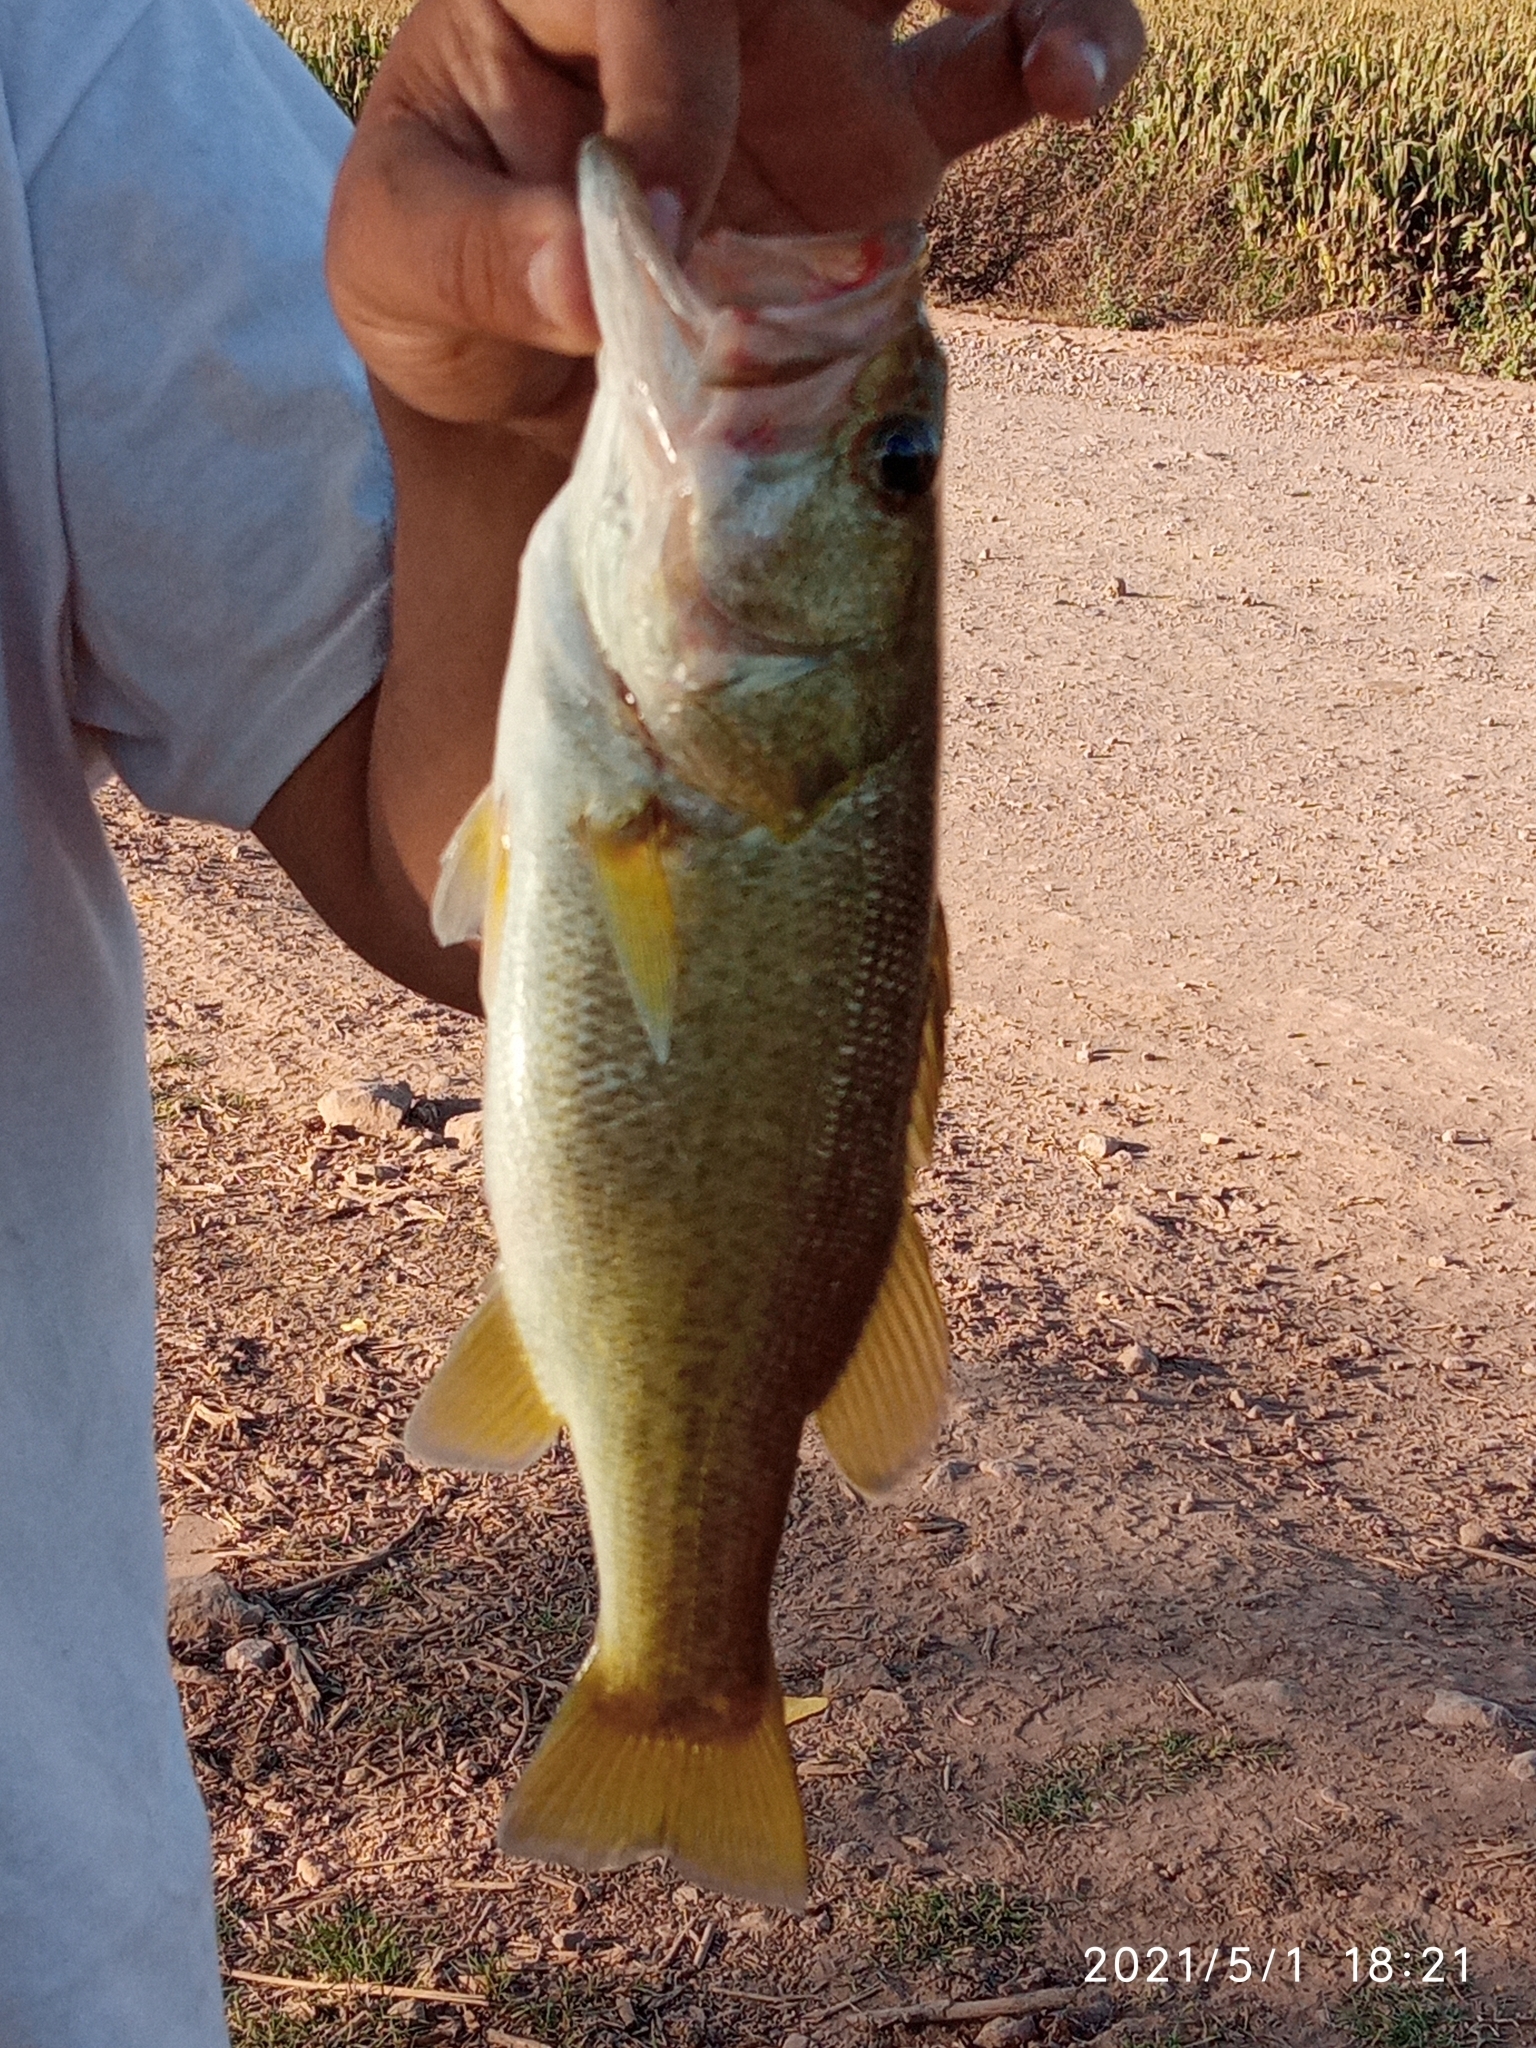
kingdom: Animalia
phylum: Chordata
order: Perciformes
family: Centrarchidae
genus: Micropterus
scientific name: Micropterus
